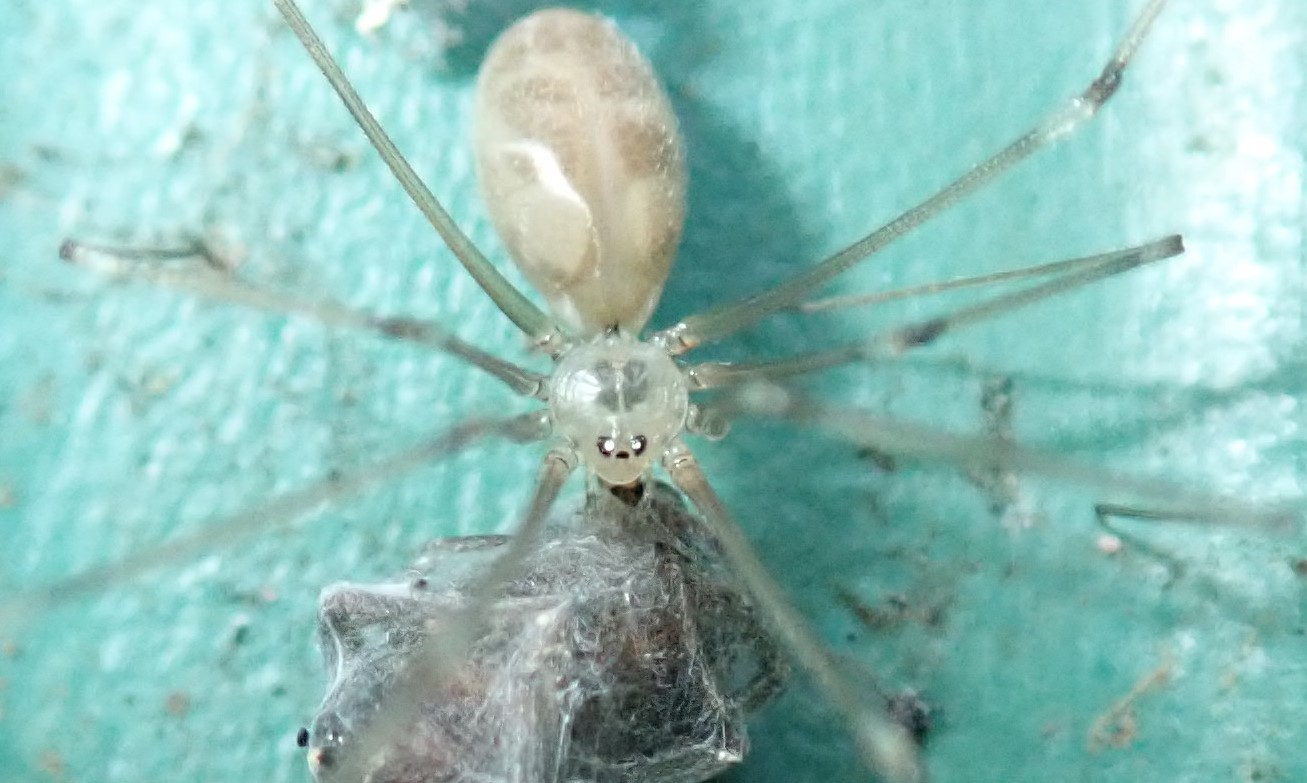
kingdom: Animalia
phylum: Arthropoda
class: Arachnida
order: Araneae
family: Pholcidae
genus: Pholcus
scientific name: Pholcus phalangioides
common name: Longbodied cellar spider
